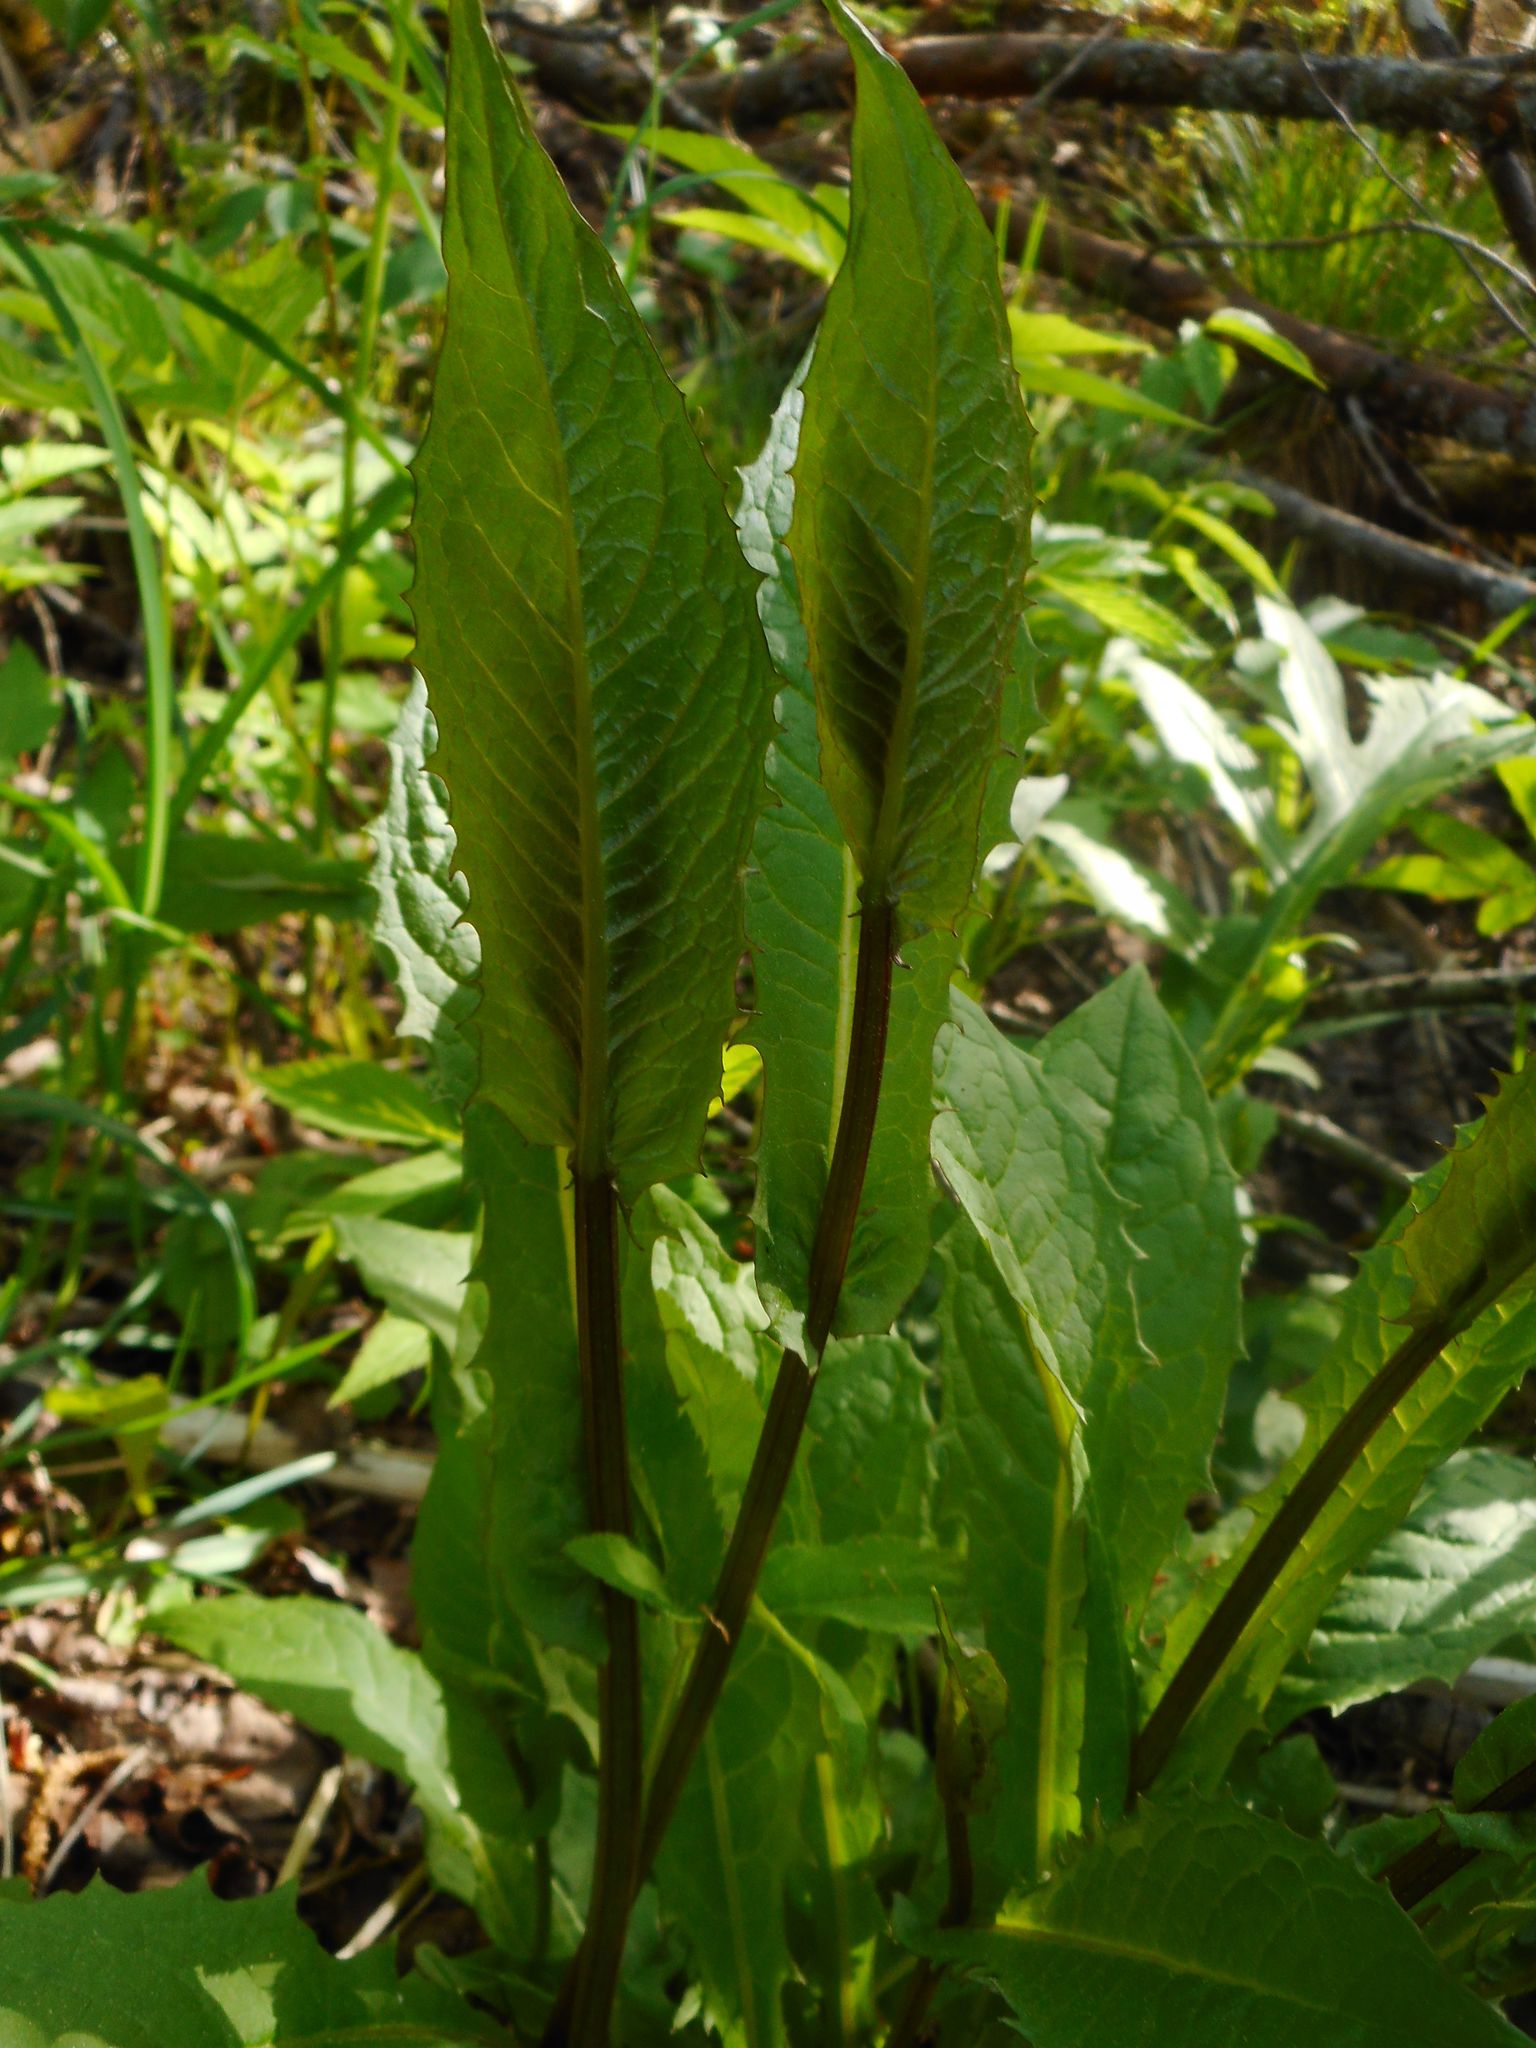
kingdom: Plantae
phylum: Tracheophyta
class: Magnoliopsida
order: Asterales
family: Asteraceae
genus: Crepis
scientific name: Crepis paludosa
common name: Marsh hawk's-beard
